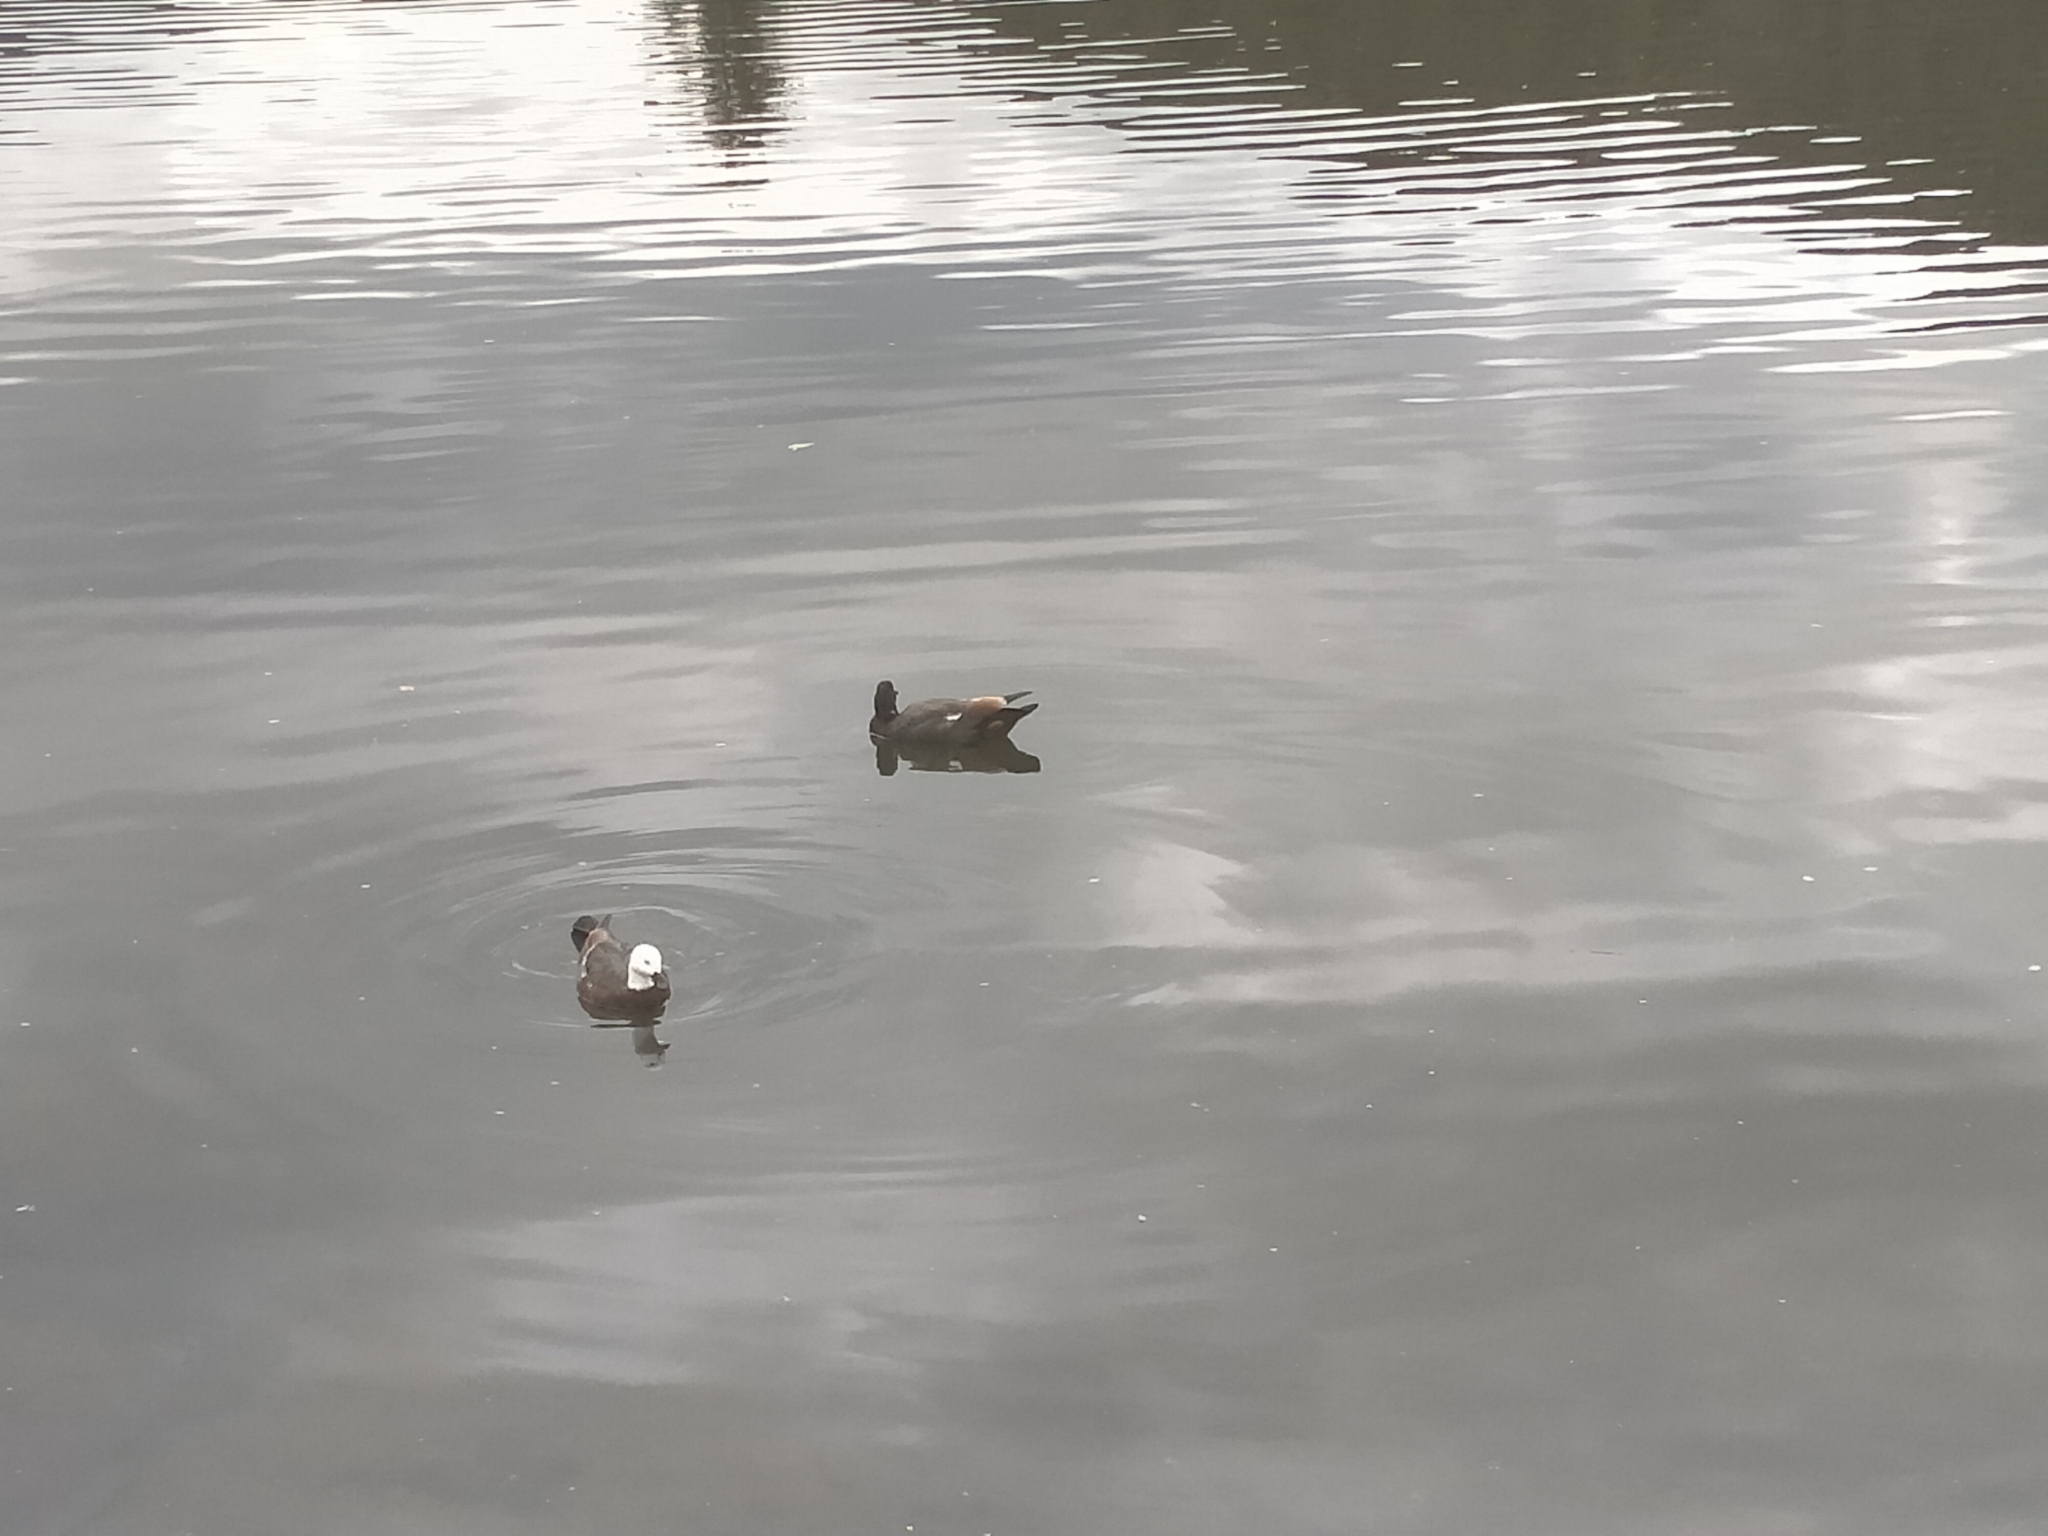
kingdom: Animalia
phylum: Chordata
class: Aves
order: Anseriformes
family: Anatidae
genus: Tadorna
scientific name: Tadorna variegata
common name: Paradise shelduck
